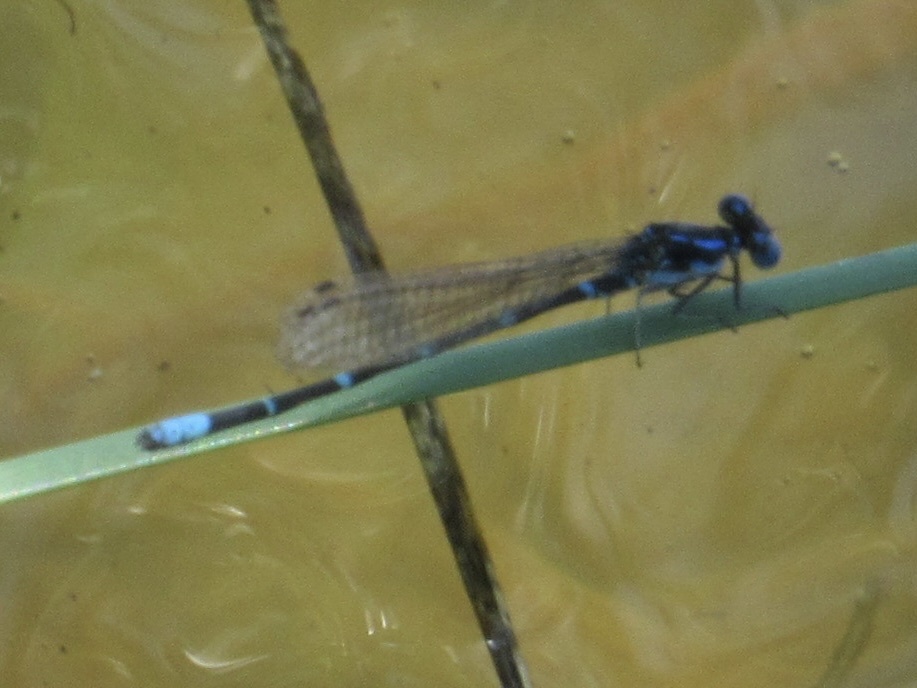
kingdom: Animalia
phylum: Arthropoda
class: Insecta
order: Odonata
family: Coenagrionidae
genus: Argia
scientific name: Argia sedula
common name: Blue-ringed dancer
